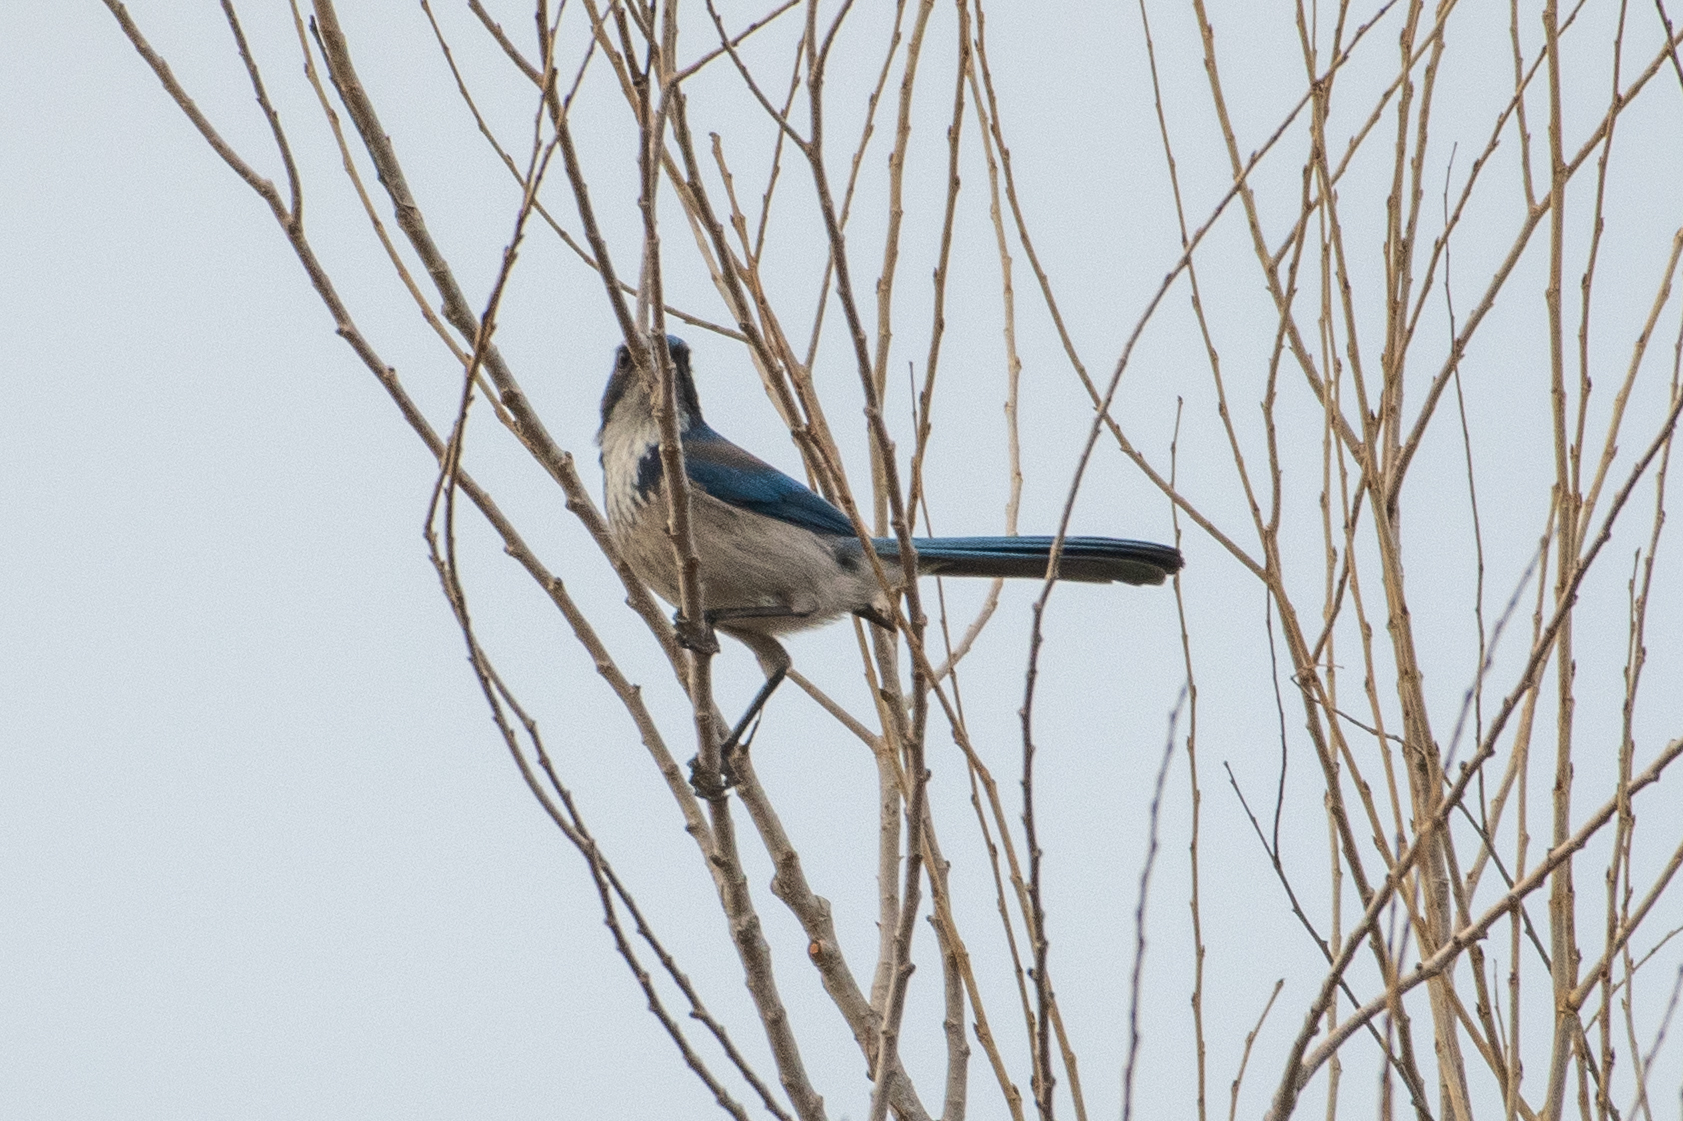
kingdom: Animalia
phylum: Chordata
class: Aves
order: Passeriformes
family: Corvidae
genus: Aphelocoma
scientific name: Aphelocoma californica
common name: California scrub-jay
